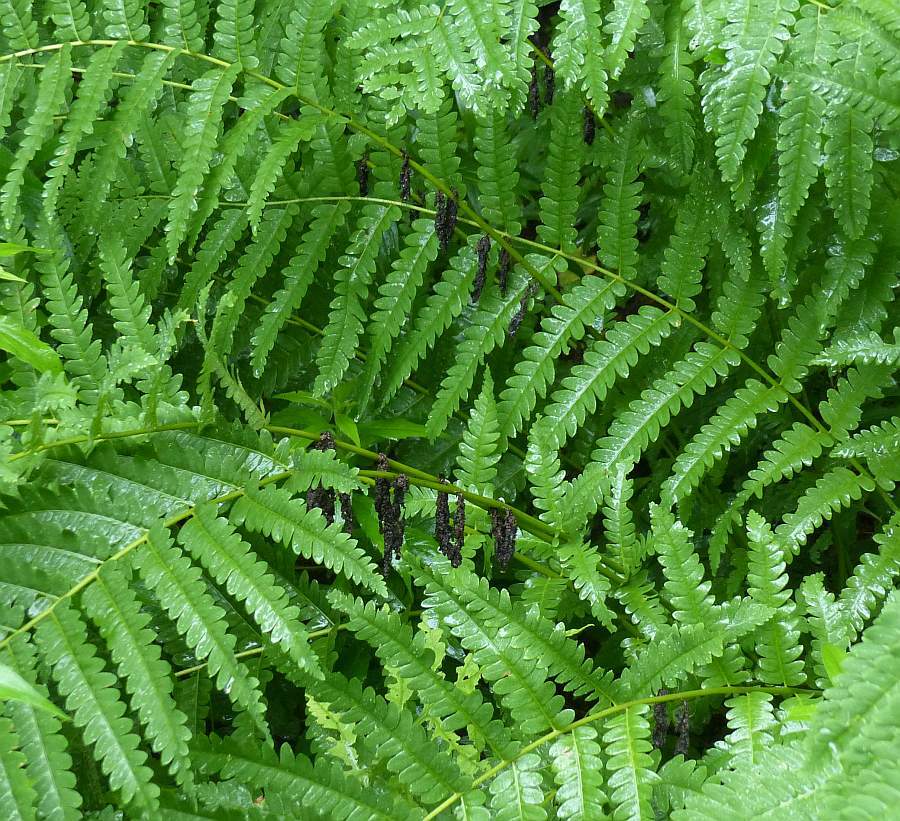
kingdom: Plantae
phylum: Tracheophyta
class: Polypodiopsida
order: Osmundales
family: Osmundaceae
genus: Claytosmunda
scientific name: Claytosmunda claytoniana
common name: Clayton's fern
